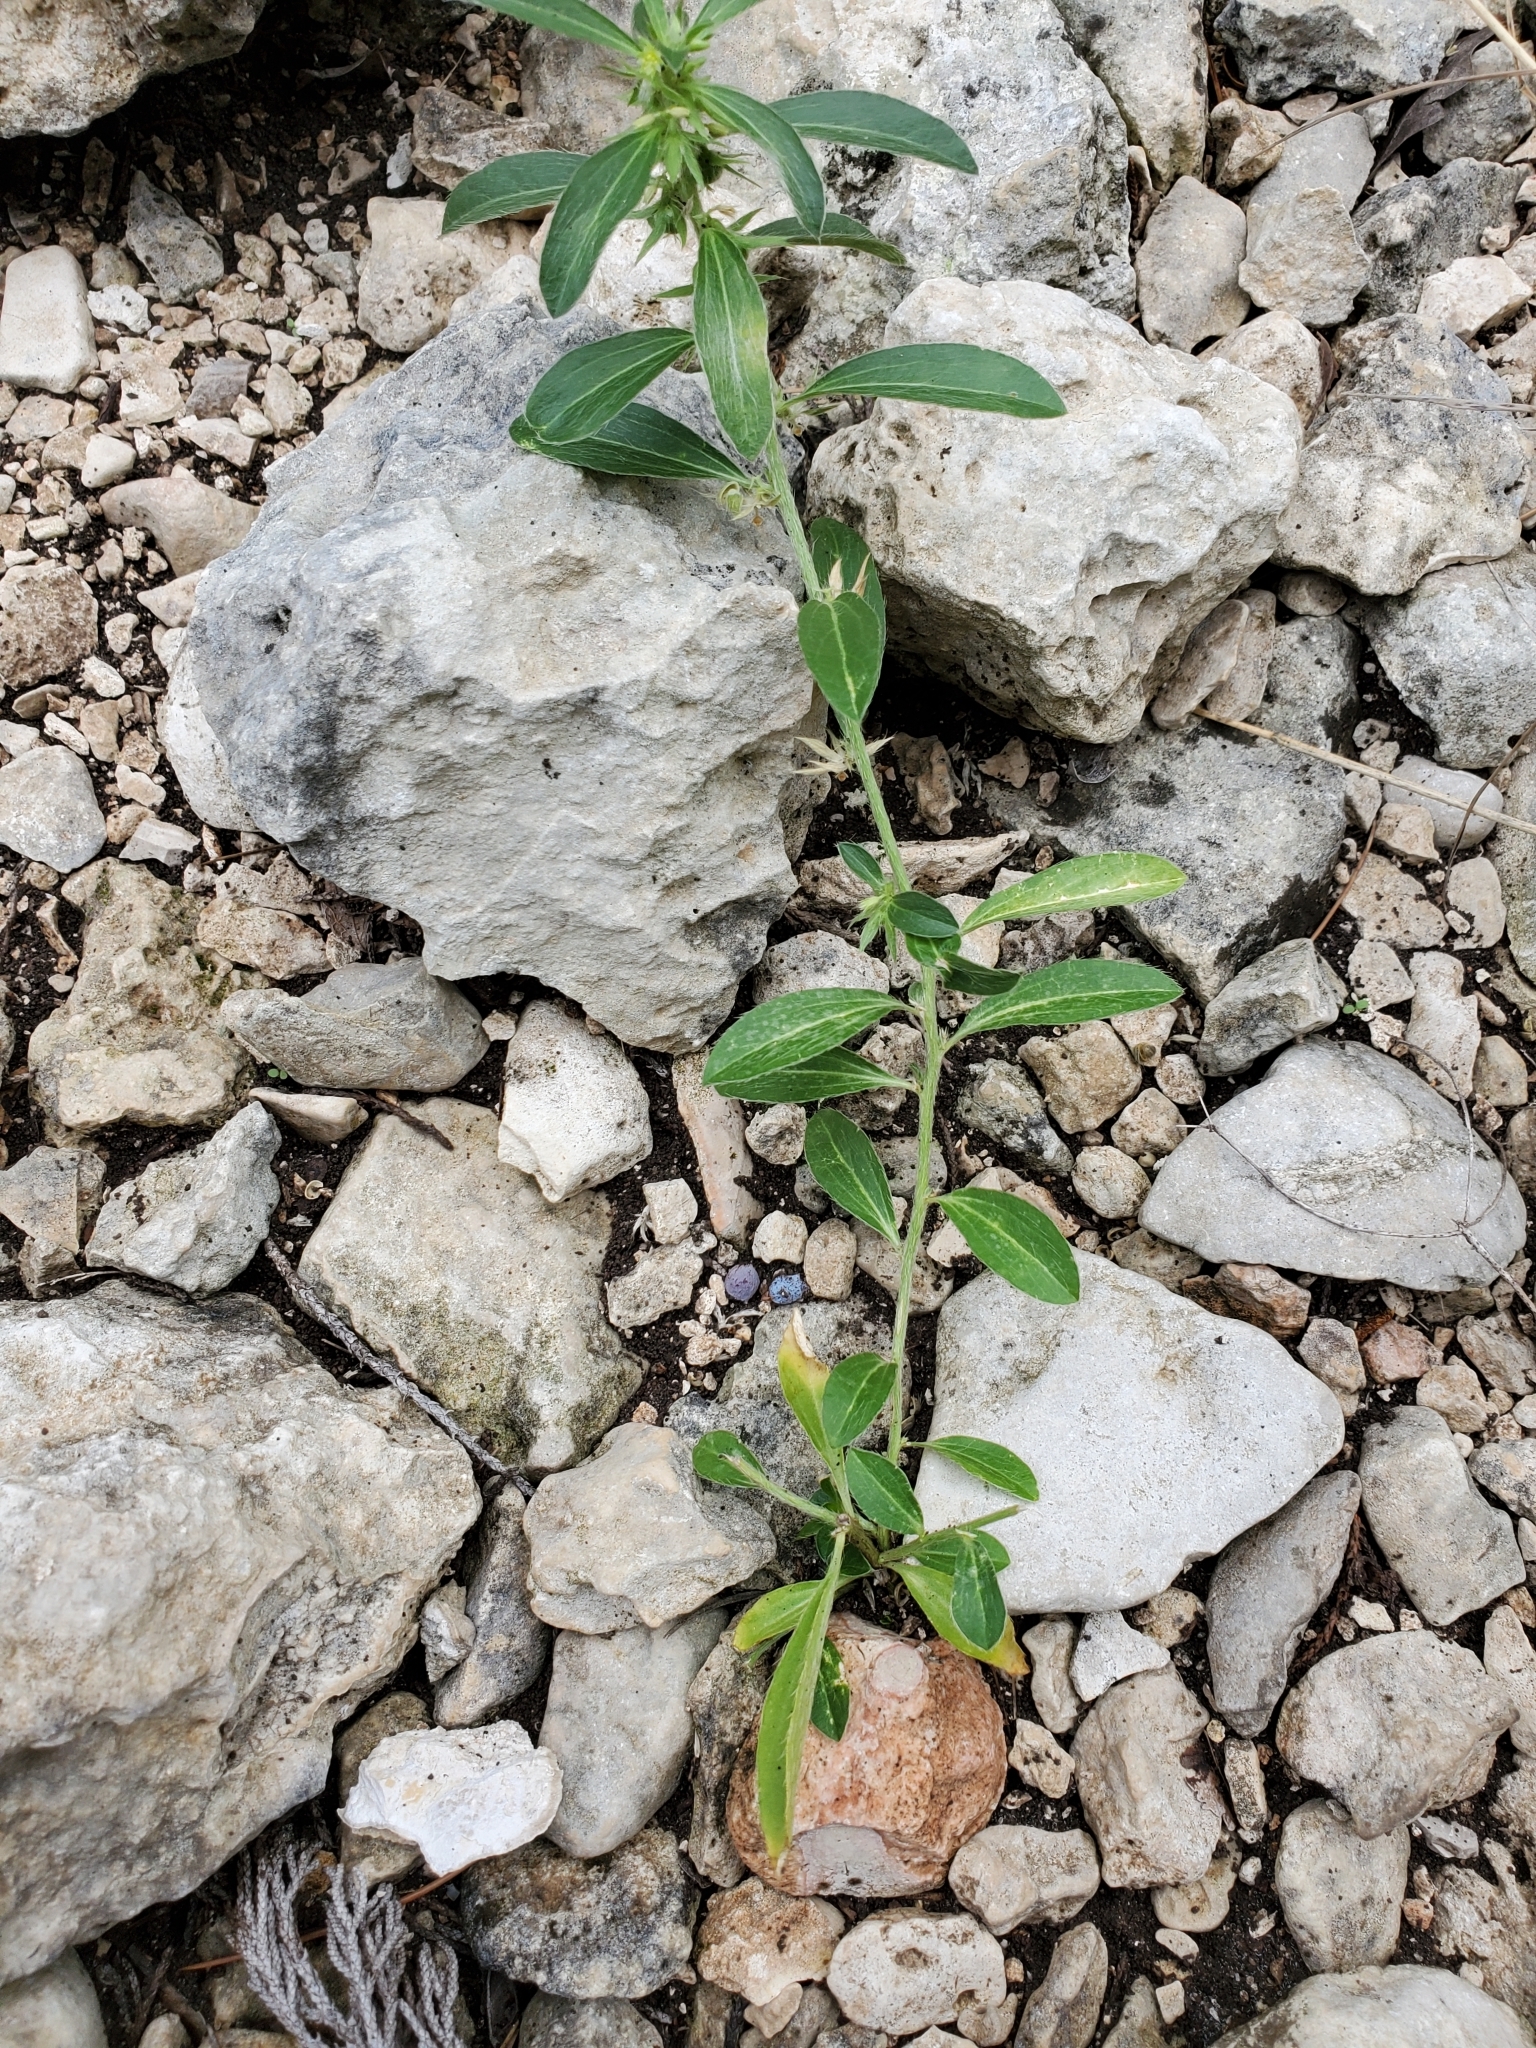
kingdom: Plantae
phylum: Tracheophyta
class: Magnoliopsida
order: Malpighiales
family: Euphorbiaceae
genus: Ditaxis
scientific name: Ditaxis humilis
